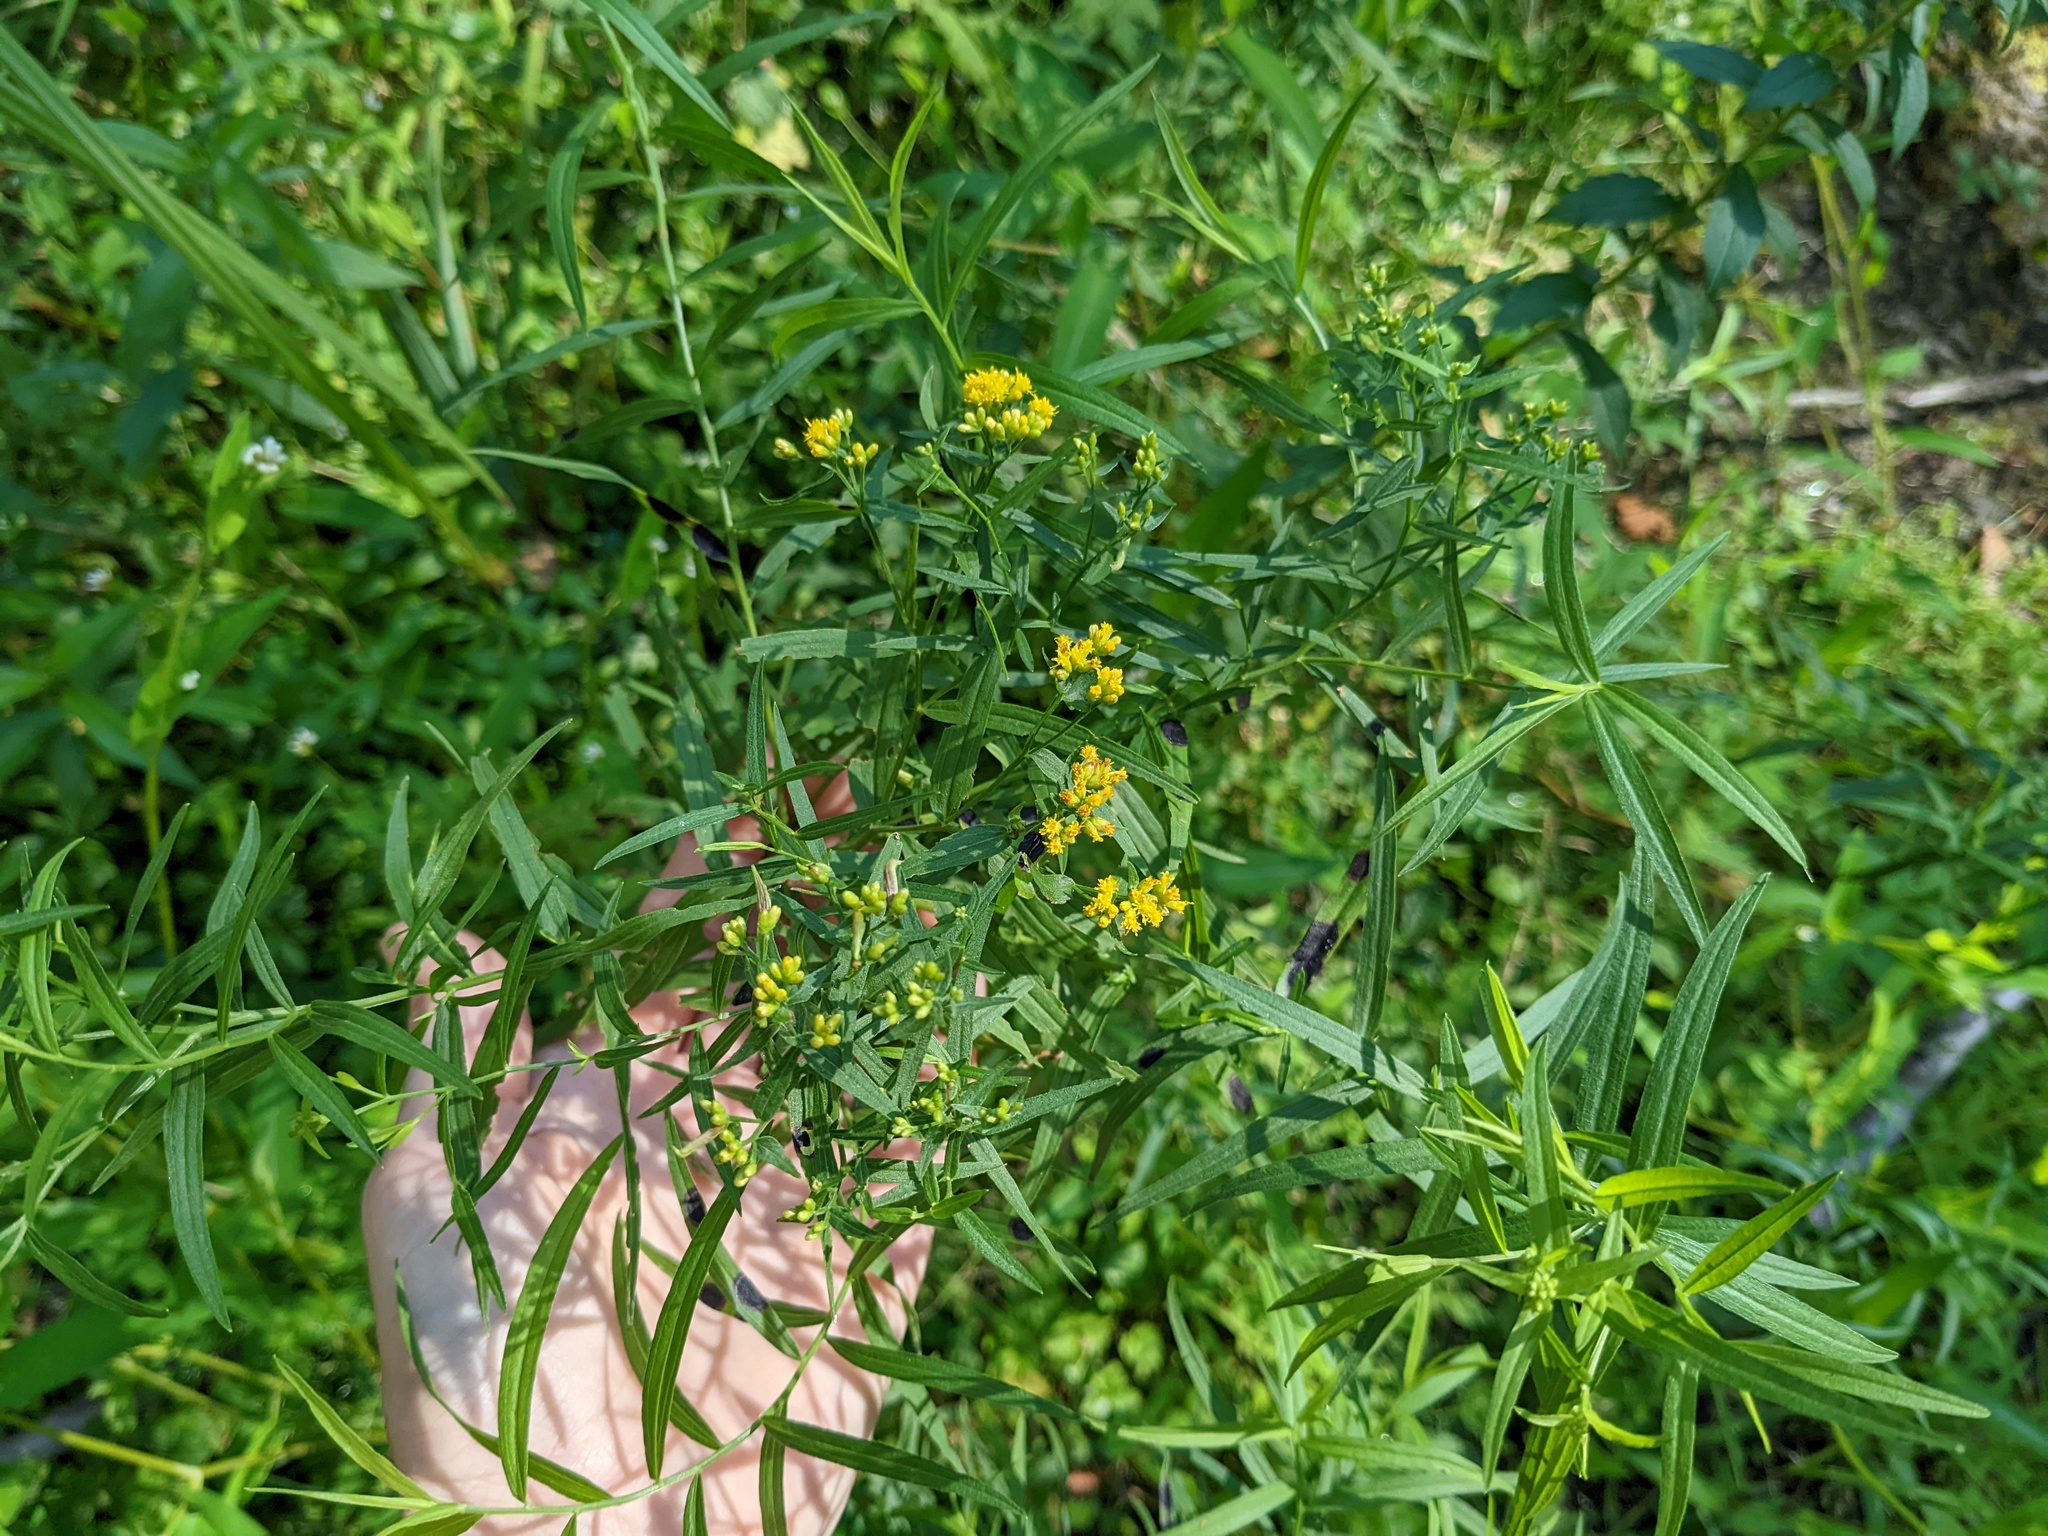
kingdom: Plantae
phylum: Tracheophyta
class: Magnoliopsida
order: Asterales
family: Asteraceae
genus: Euthamia
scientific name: Euthamia graminifolia
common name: Common goldentop
